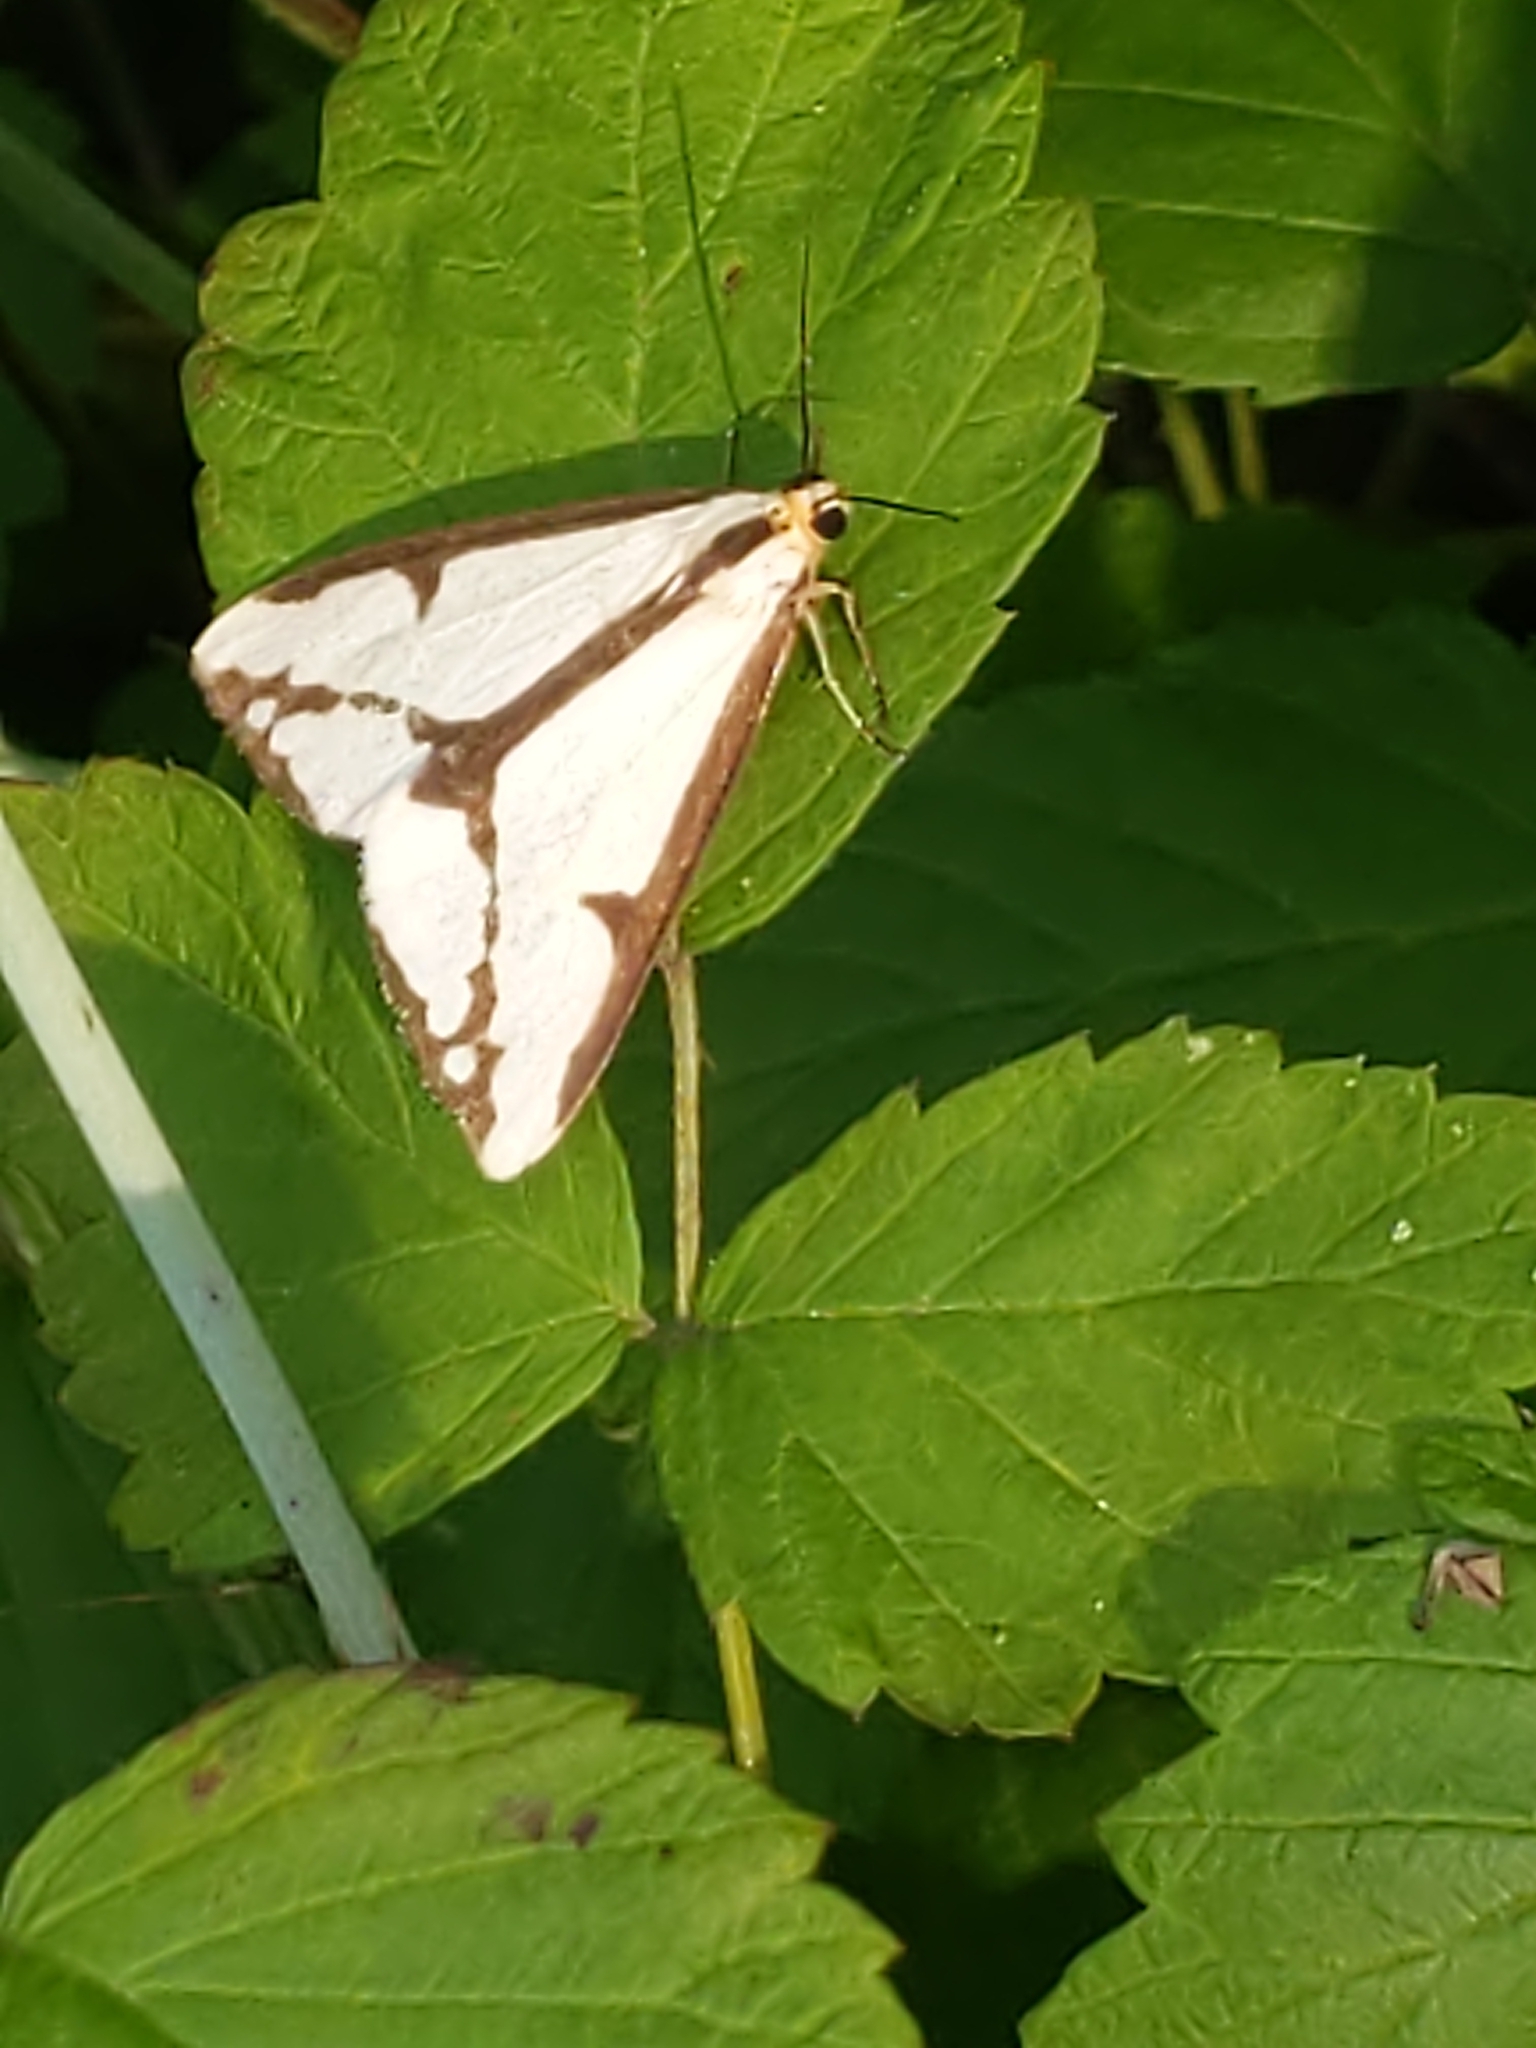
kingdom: Animalia
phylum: Arthropoda
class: Insecta
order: Lepidoptera
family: Erebidae
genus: Haploa
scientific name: Haploa lecontei
